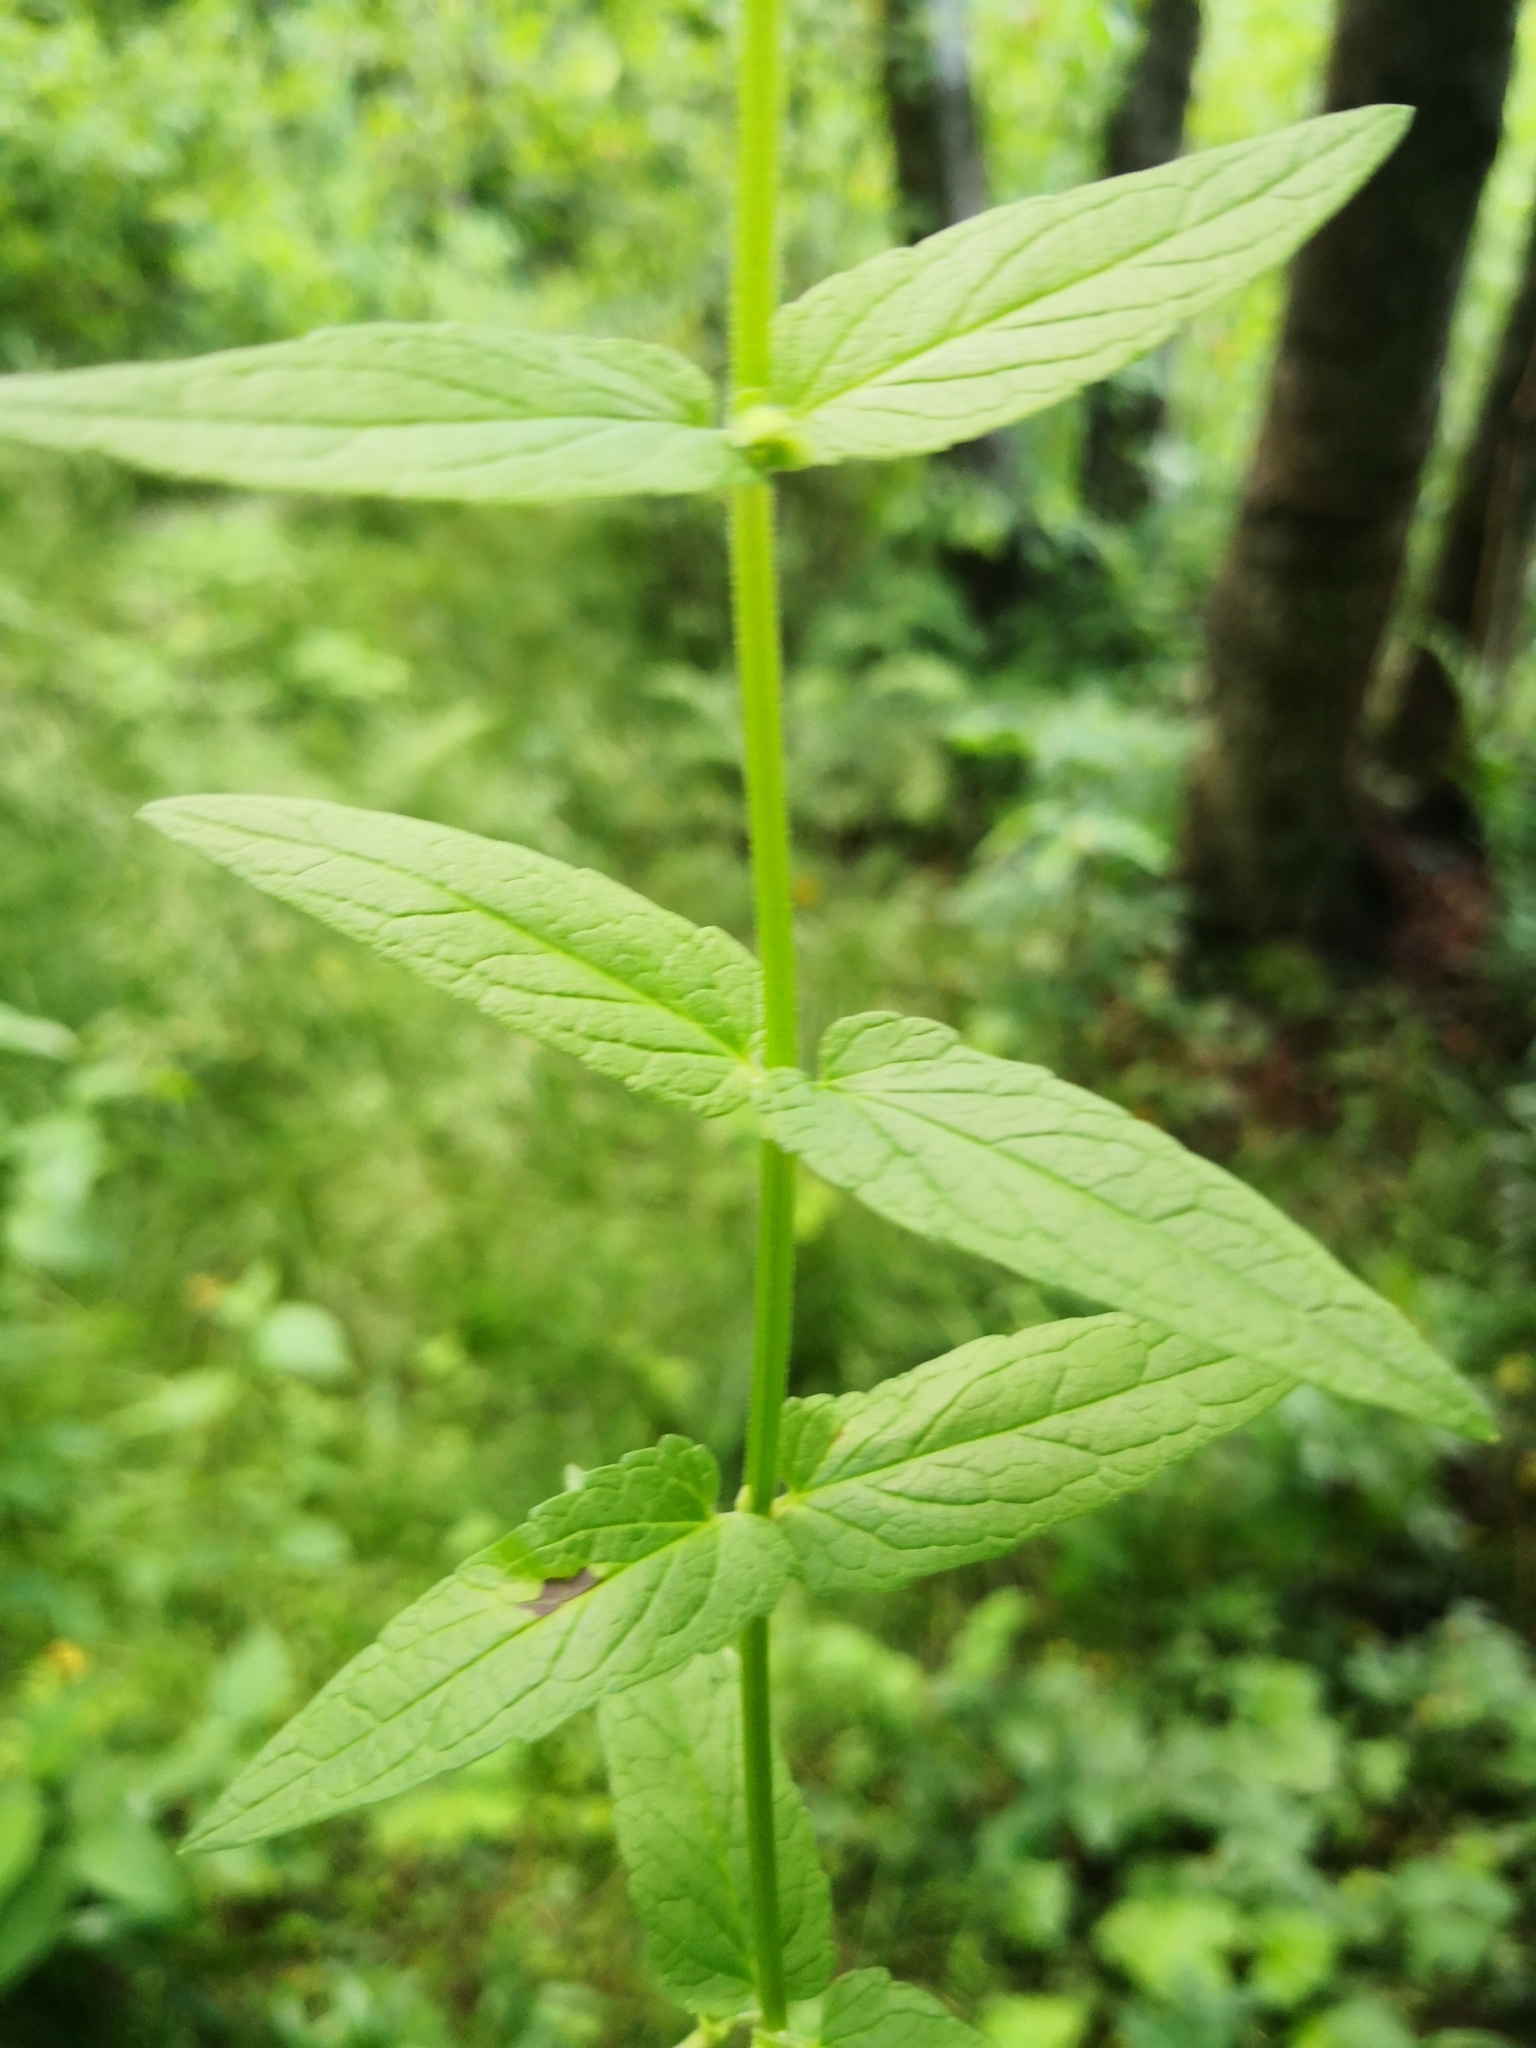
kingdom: Plantae
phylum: Tracheophyta
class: Magnoliopsida
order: Lamiales
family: Lamiaceae
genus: Scutellaria
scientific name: Scutellaria galericulata
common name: Skullcap
